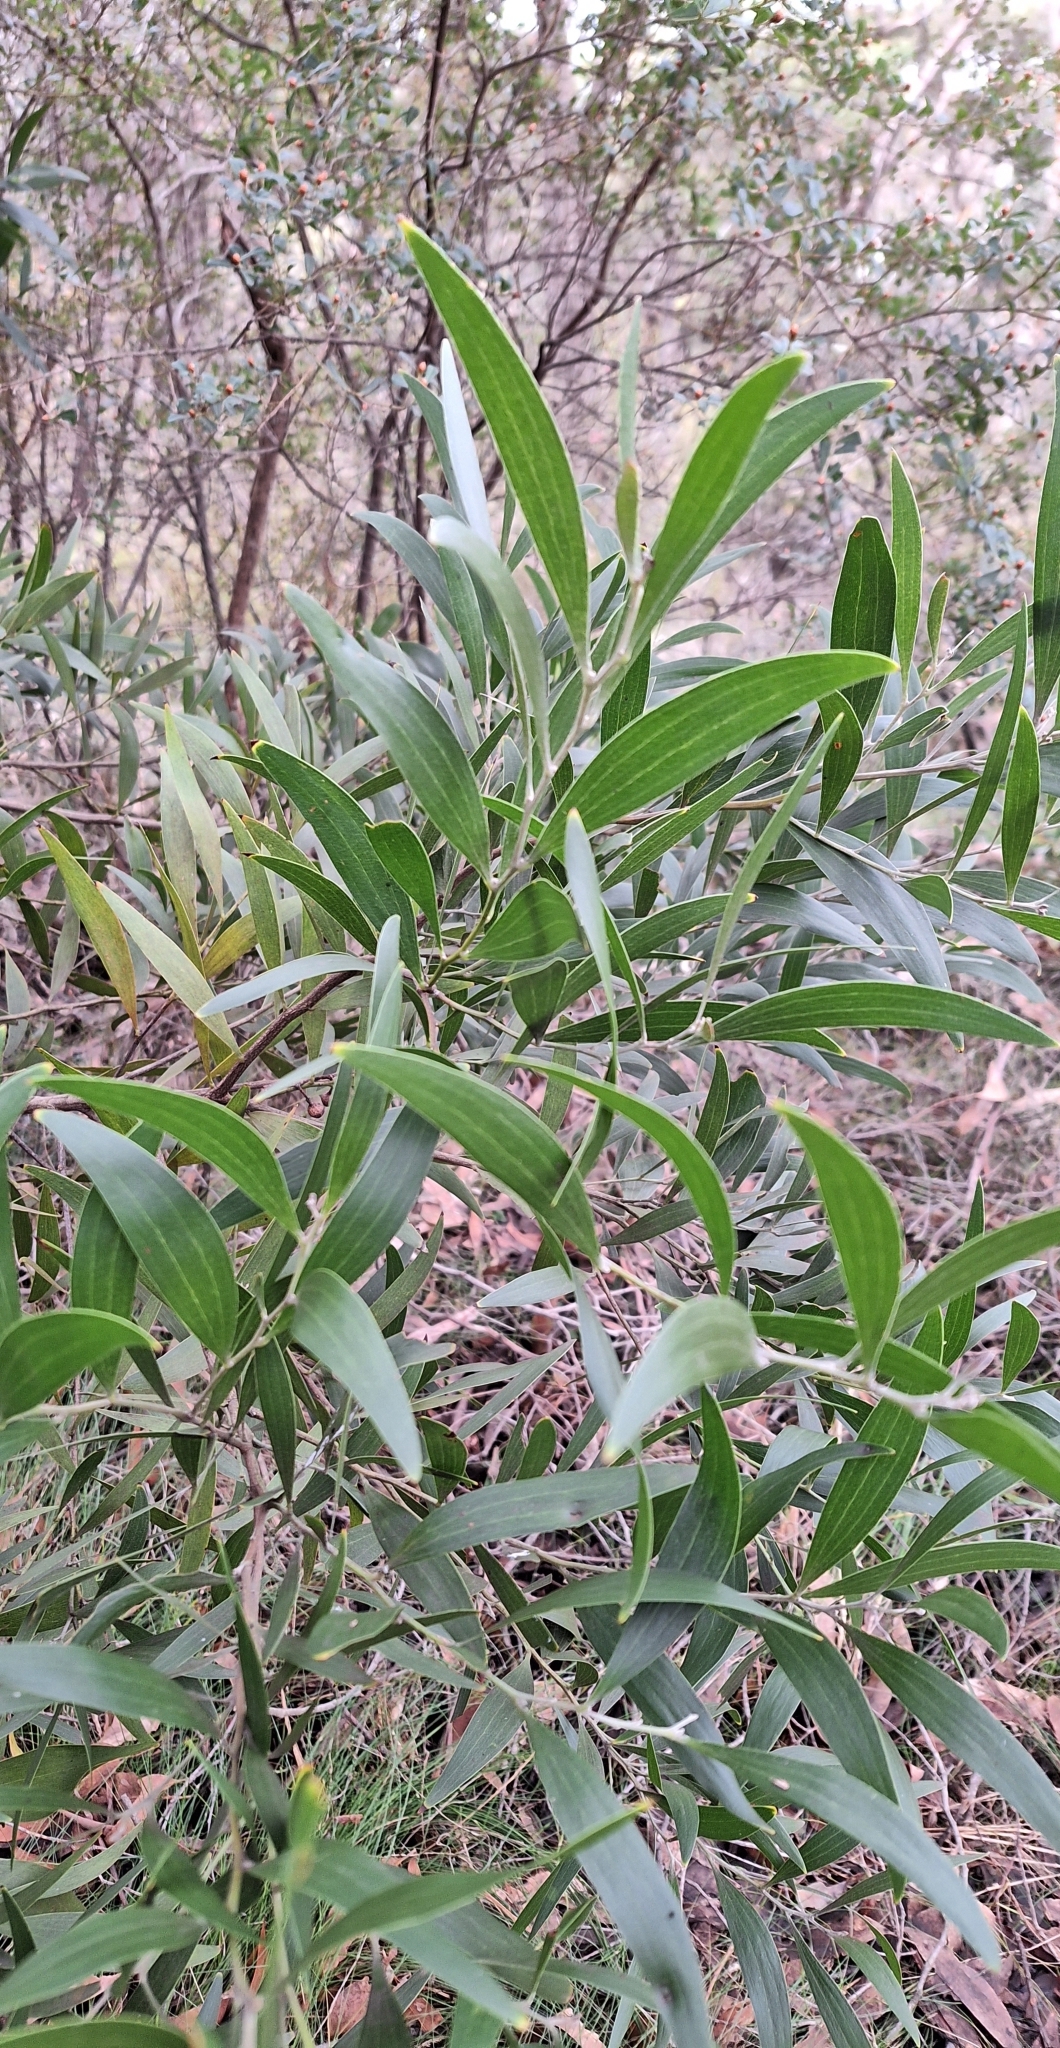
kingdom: Plantae
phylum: Tracheophyta
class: Magnoliopsida
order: Fabales
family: Fabaceae
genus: Acacia
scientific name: Acacia melanoxylon
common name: Blackwood
